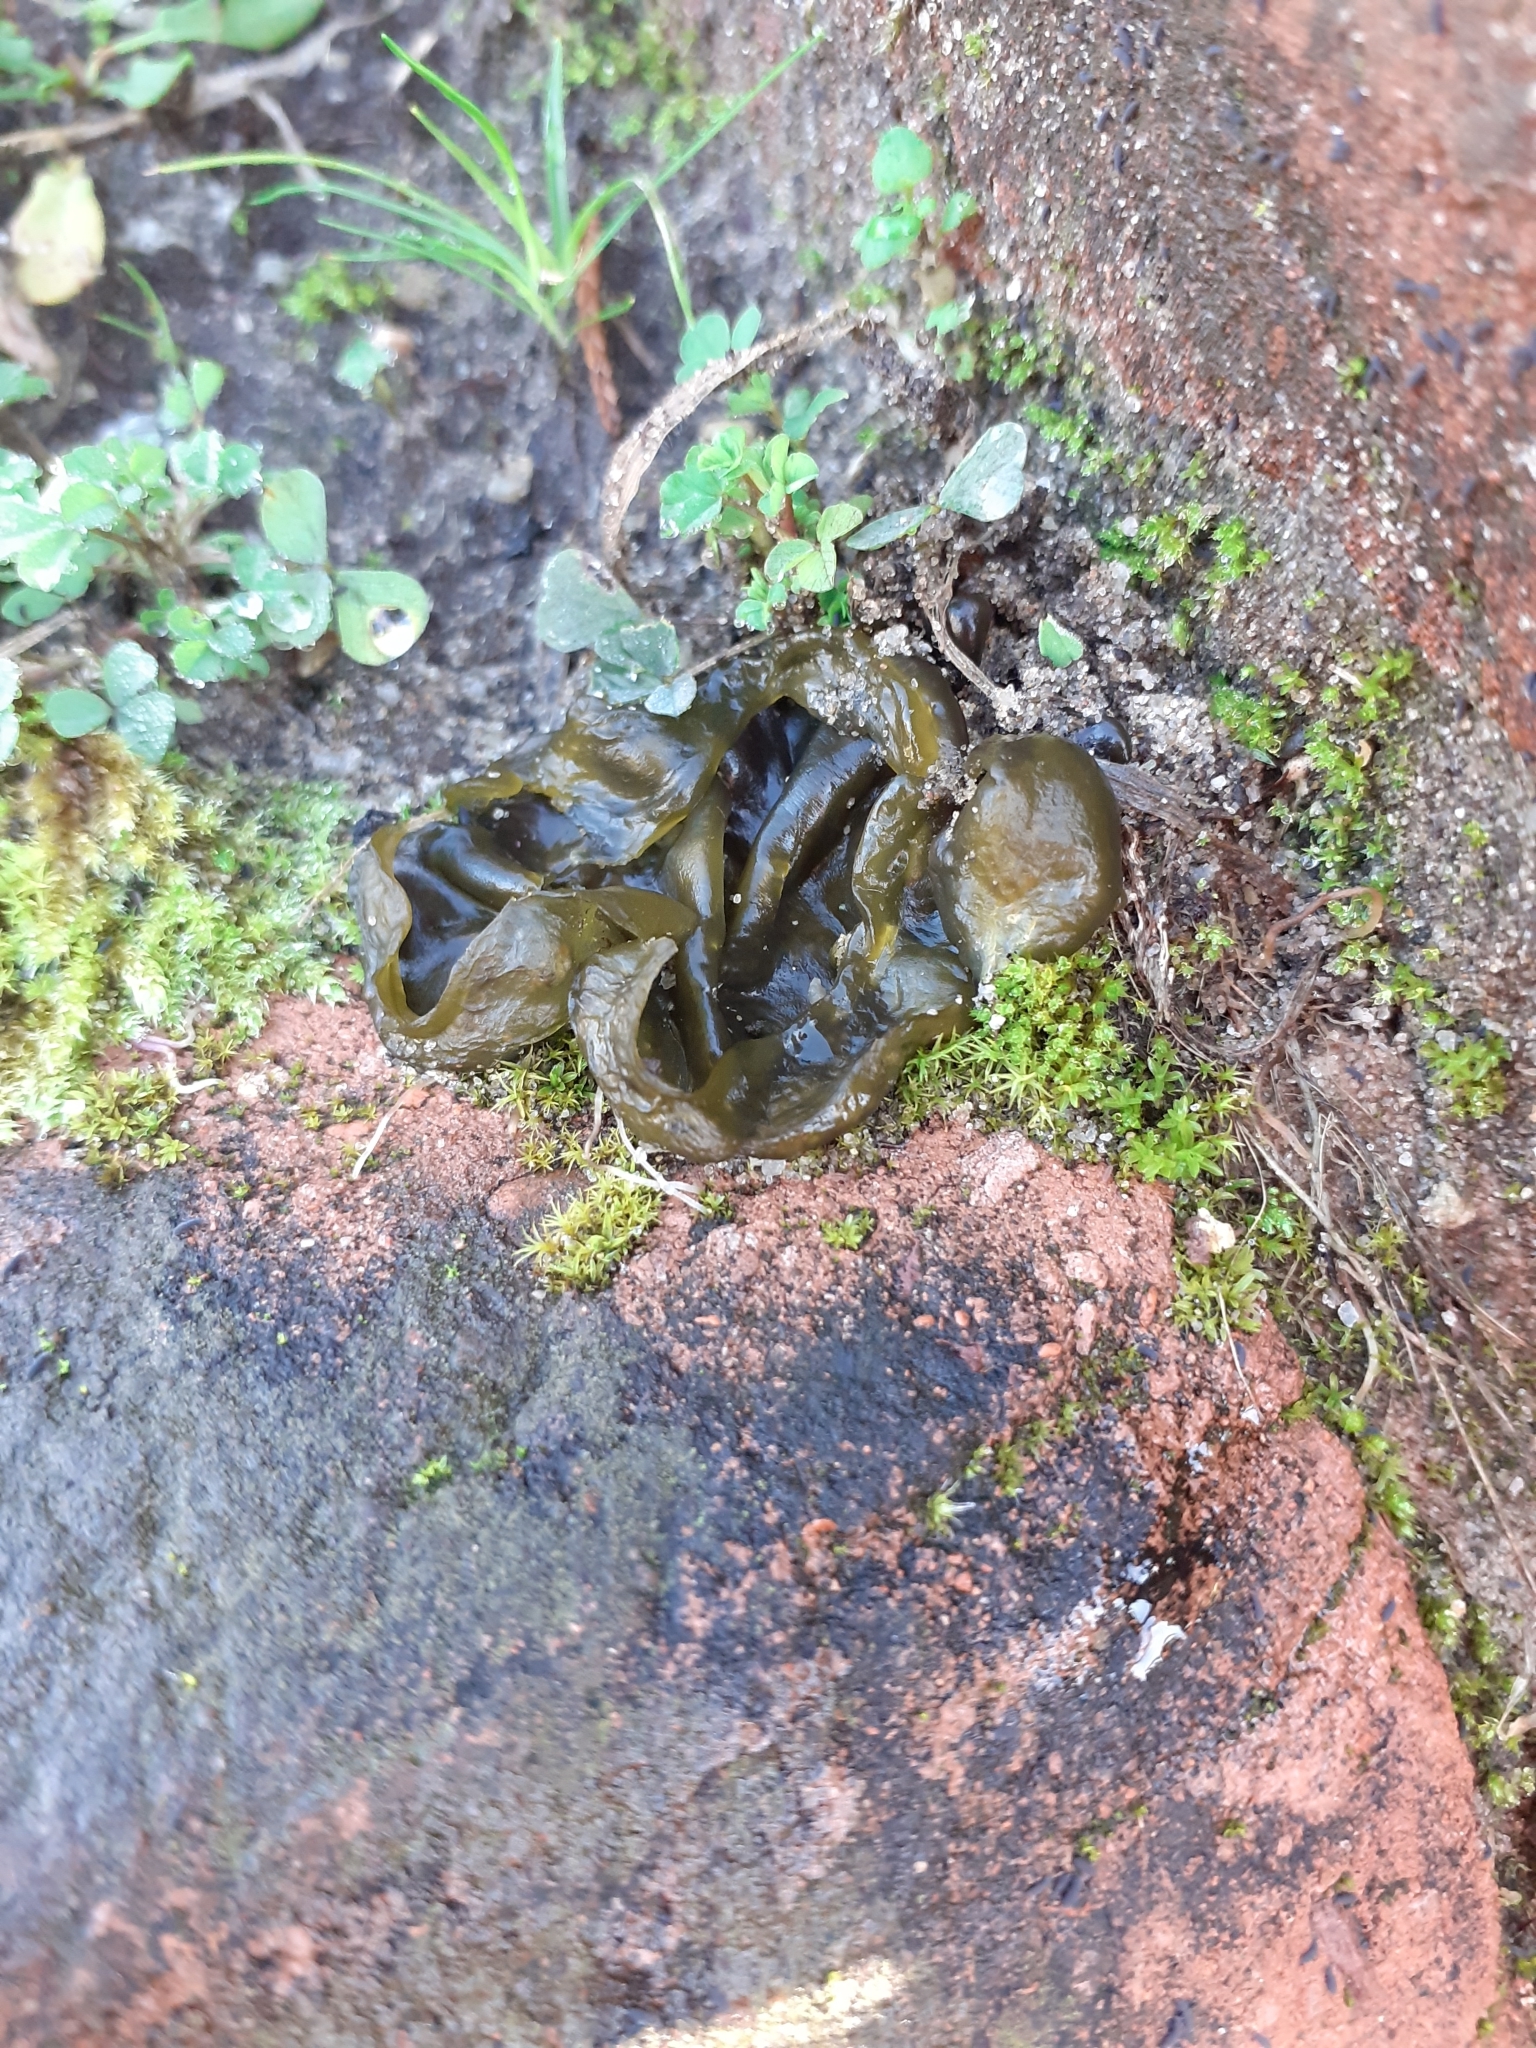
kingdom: Bacteria
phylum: Cyanobacteria
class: Cyanobacteriia
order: Cyanobacteriales
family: Nostocaceae
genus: Nostoc
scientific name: Nostoc commune
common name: Star jelly
